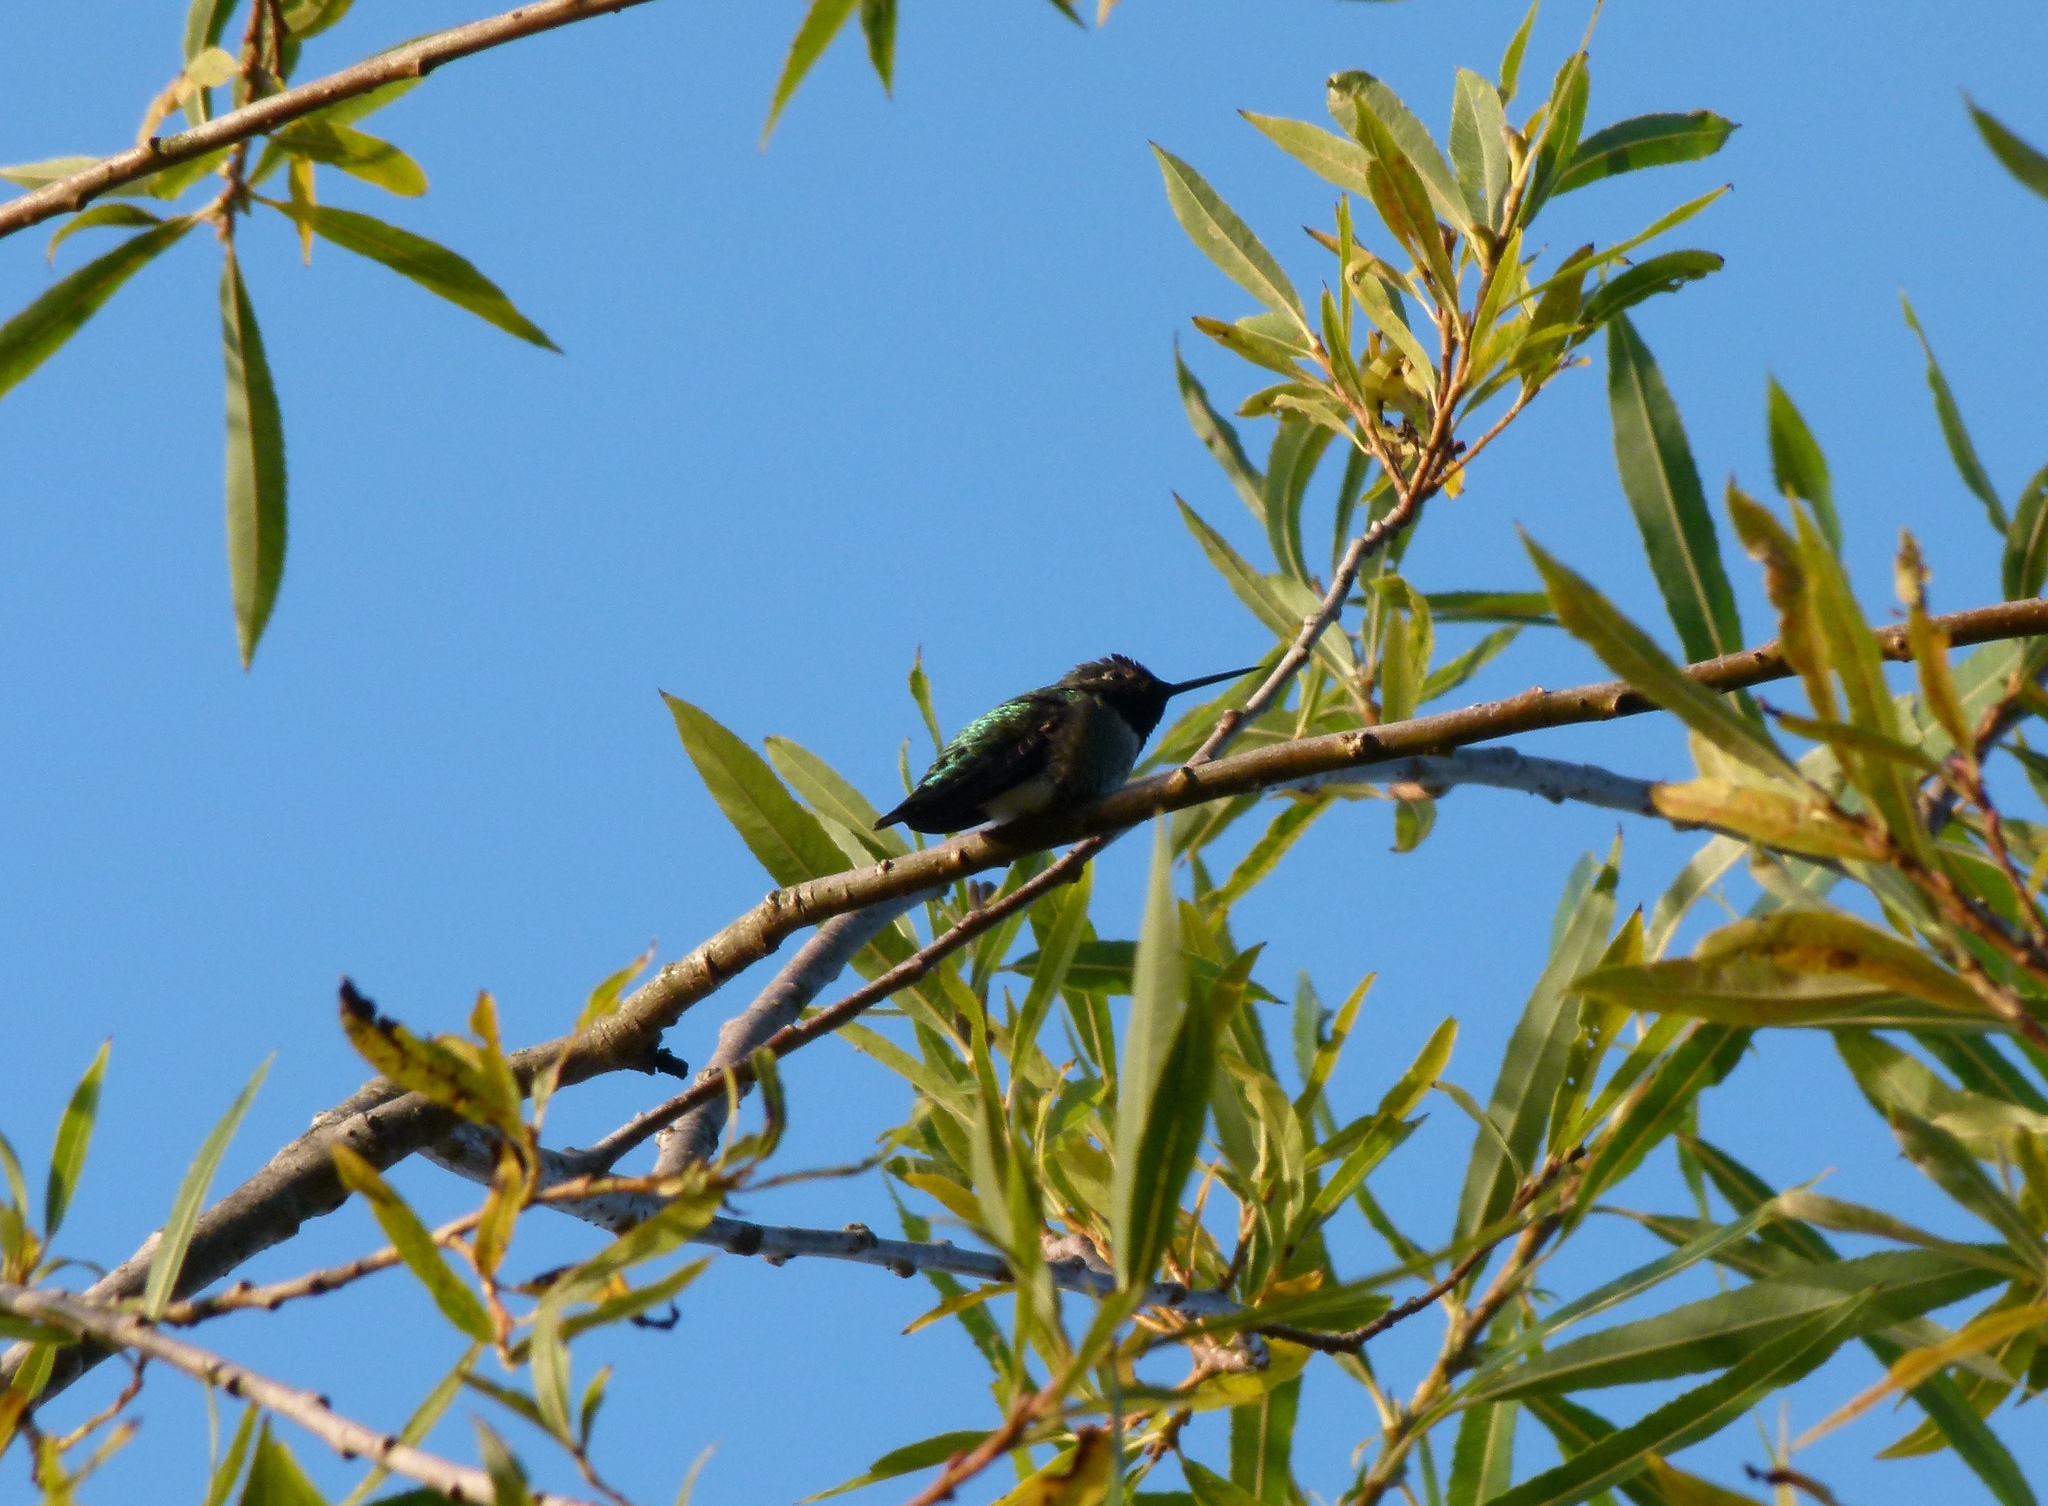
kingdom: Animalia
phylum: Chordata
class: Aves
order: Apodiformes
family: Trochilidae
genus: Calypte
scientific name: Calypte anna
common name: Anna's hummingbird
